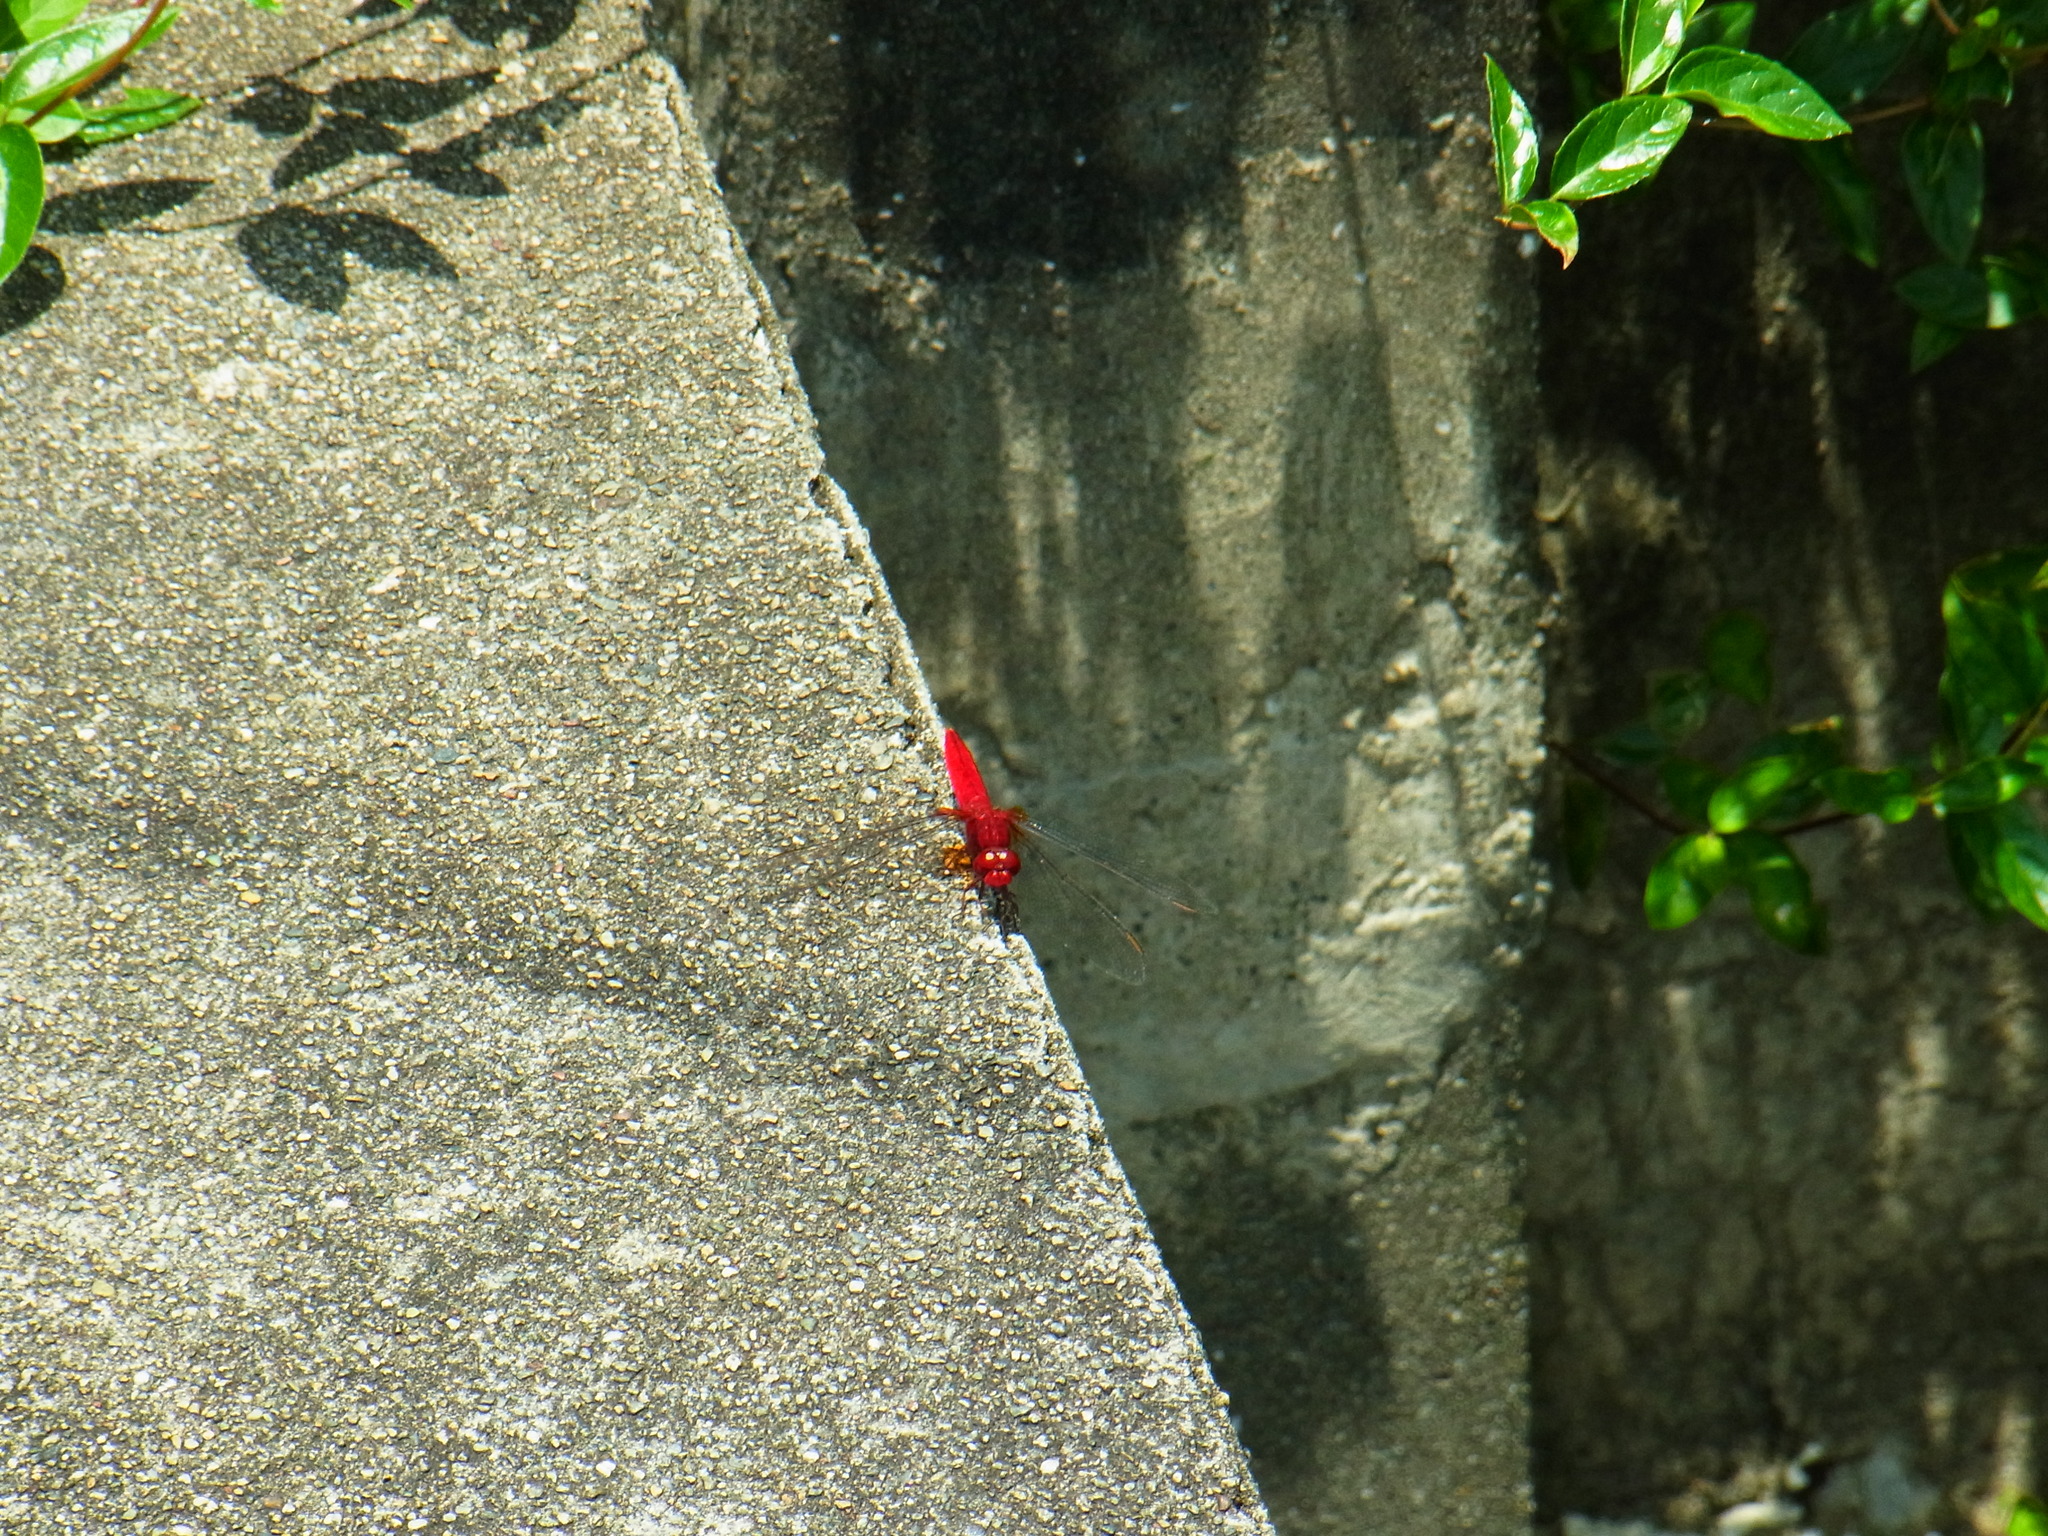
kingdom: Animalia
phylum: Arthropoda
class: Insecta
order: Odonata
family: Libellulidae
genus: Crocothemis
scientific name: Crocothemis servilia
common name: Scarlet skimmer
